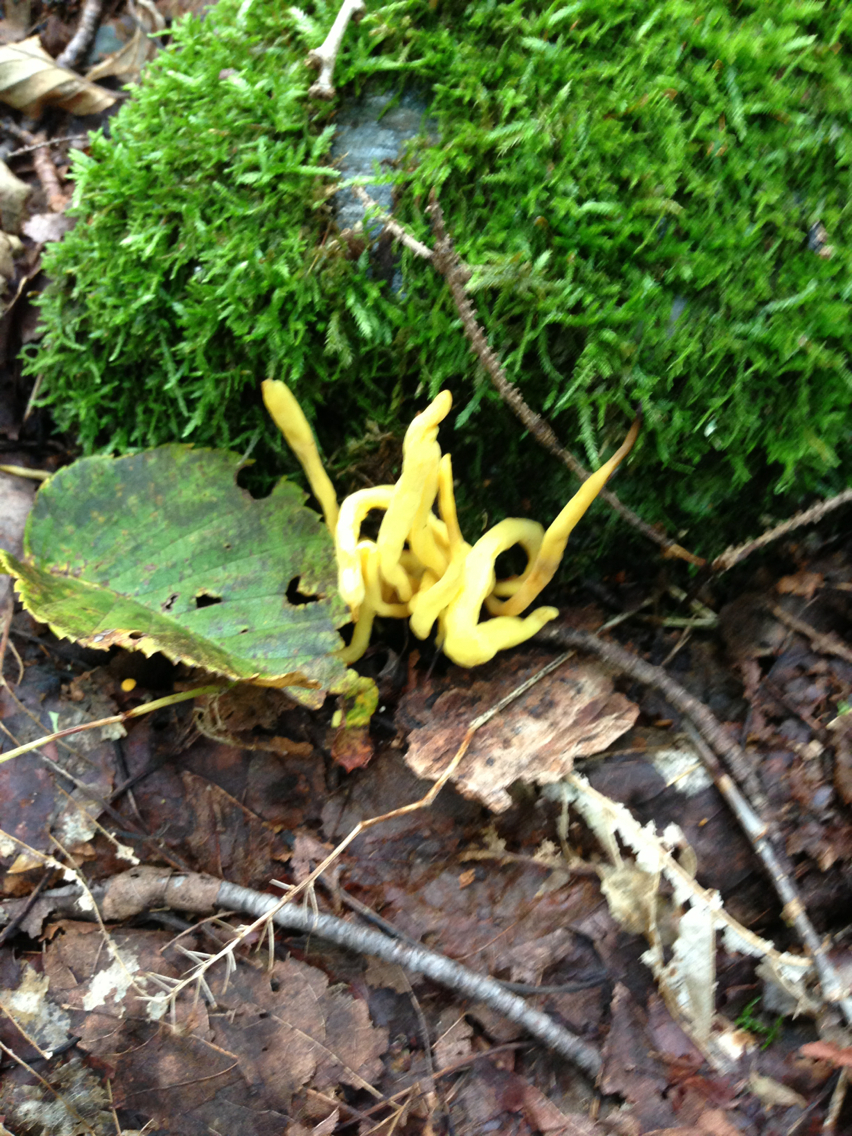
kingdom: Fungi
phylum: Basidiomycota
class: Agaricomycetes
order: Agaricales
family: Clavariaceae
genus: Clavulinopsis
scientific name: Clavulinopsis fusiformis
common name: Golden spindles
